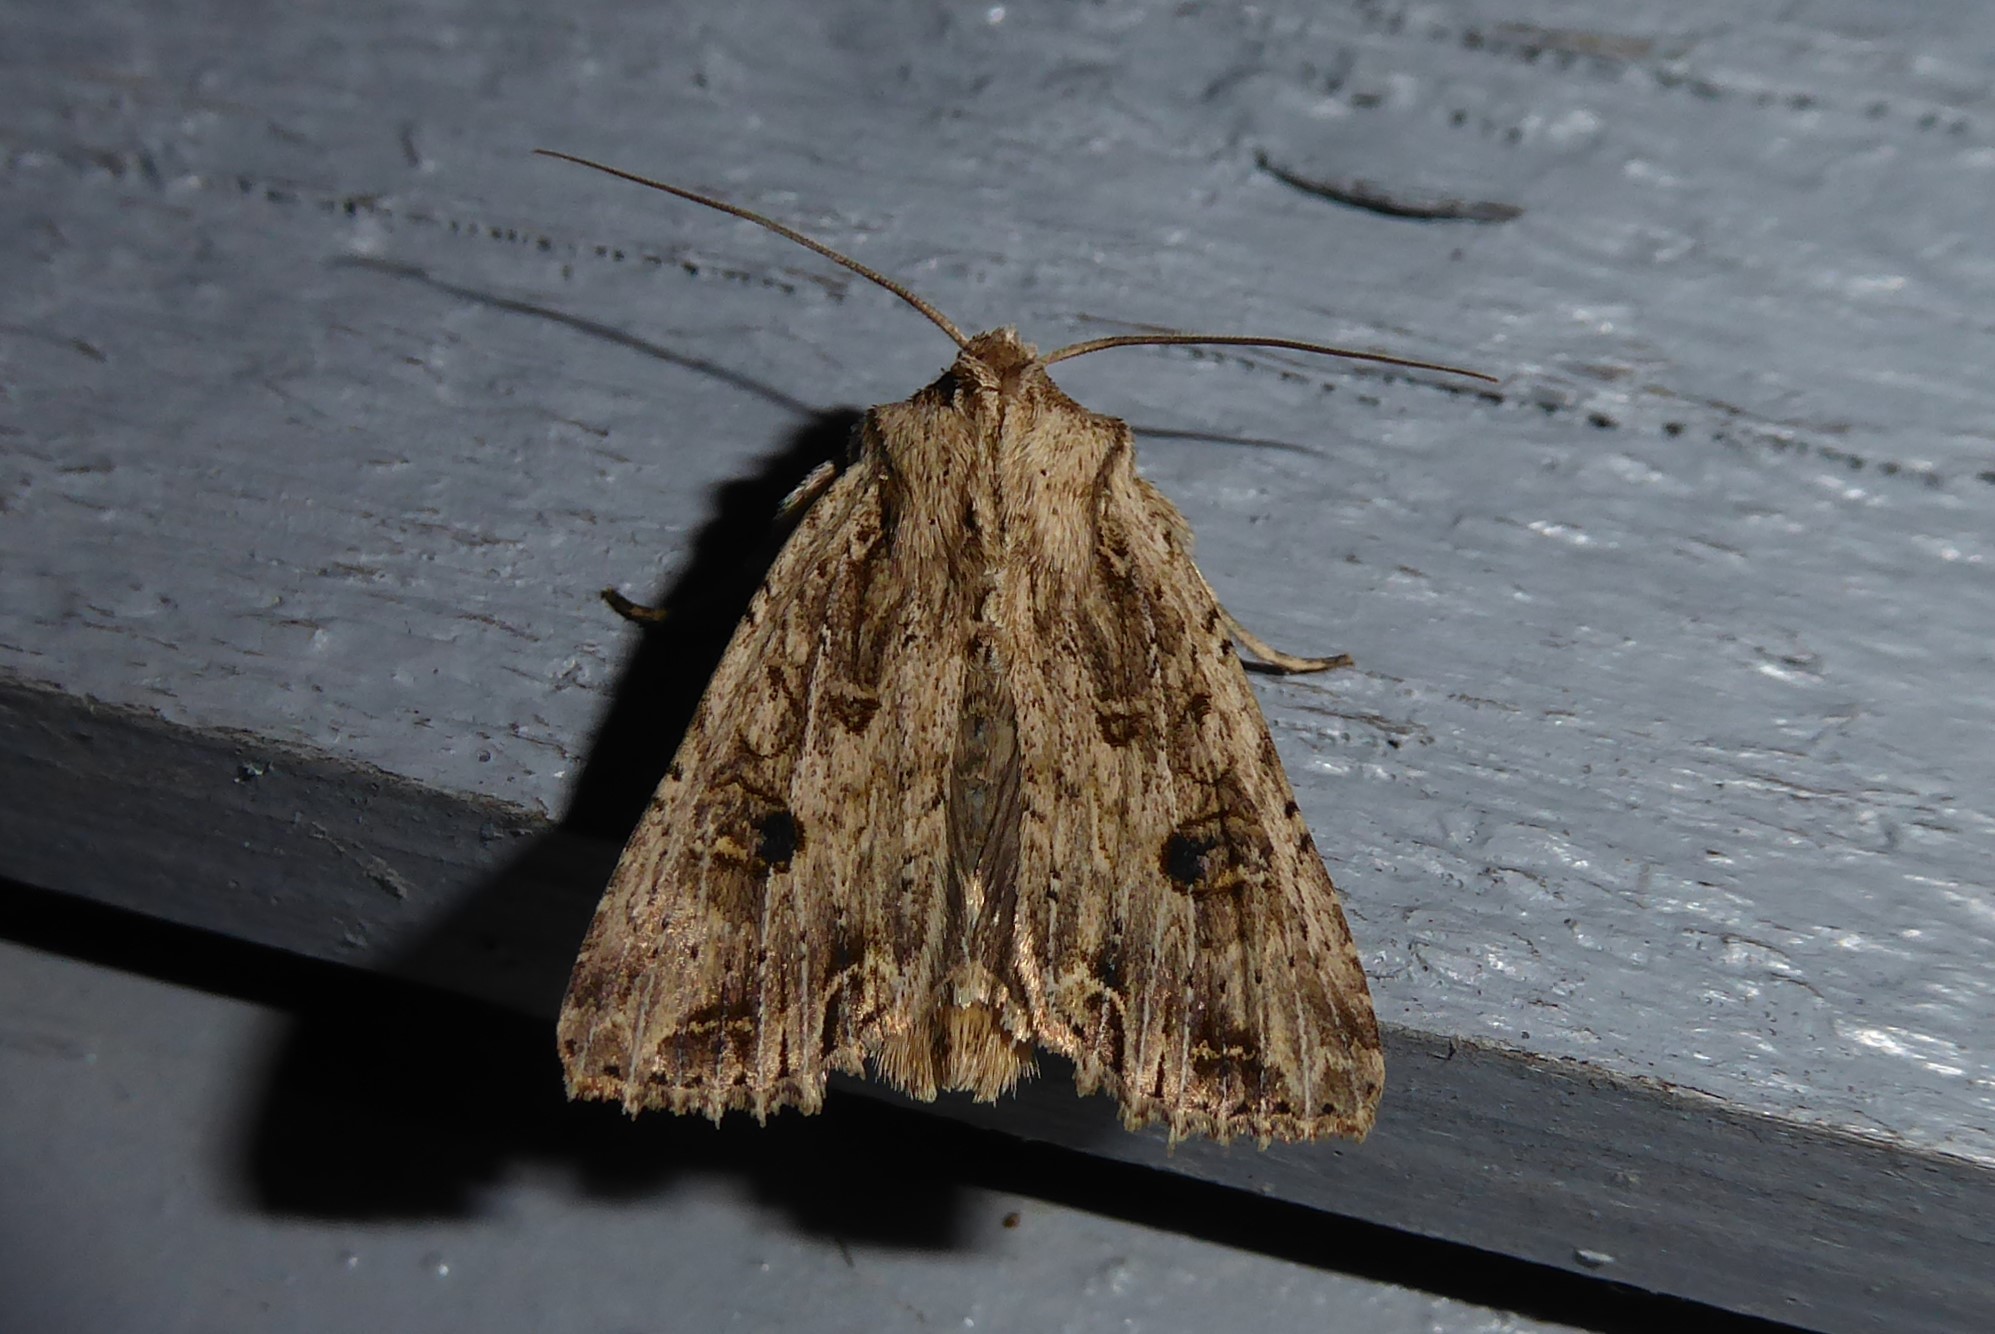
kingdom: Animalia
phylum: Arthropoda
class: Insecta
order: Lepidoptera
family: Noctuidae
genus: Ichneutica
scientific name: Ichneutica lignana
